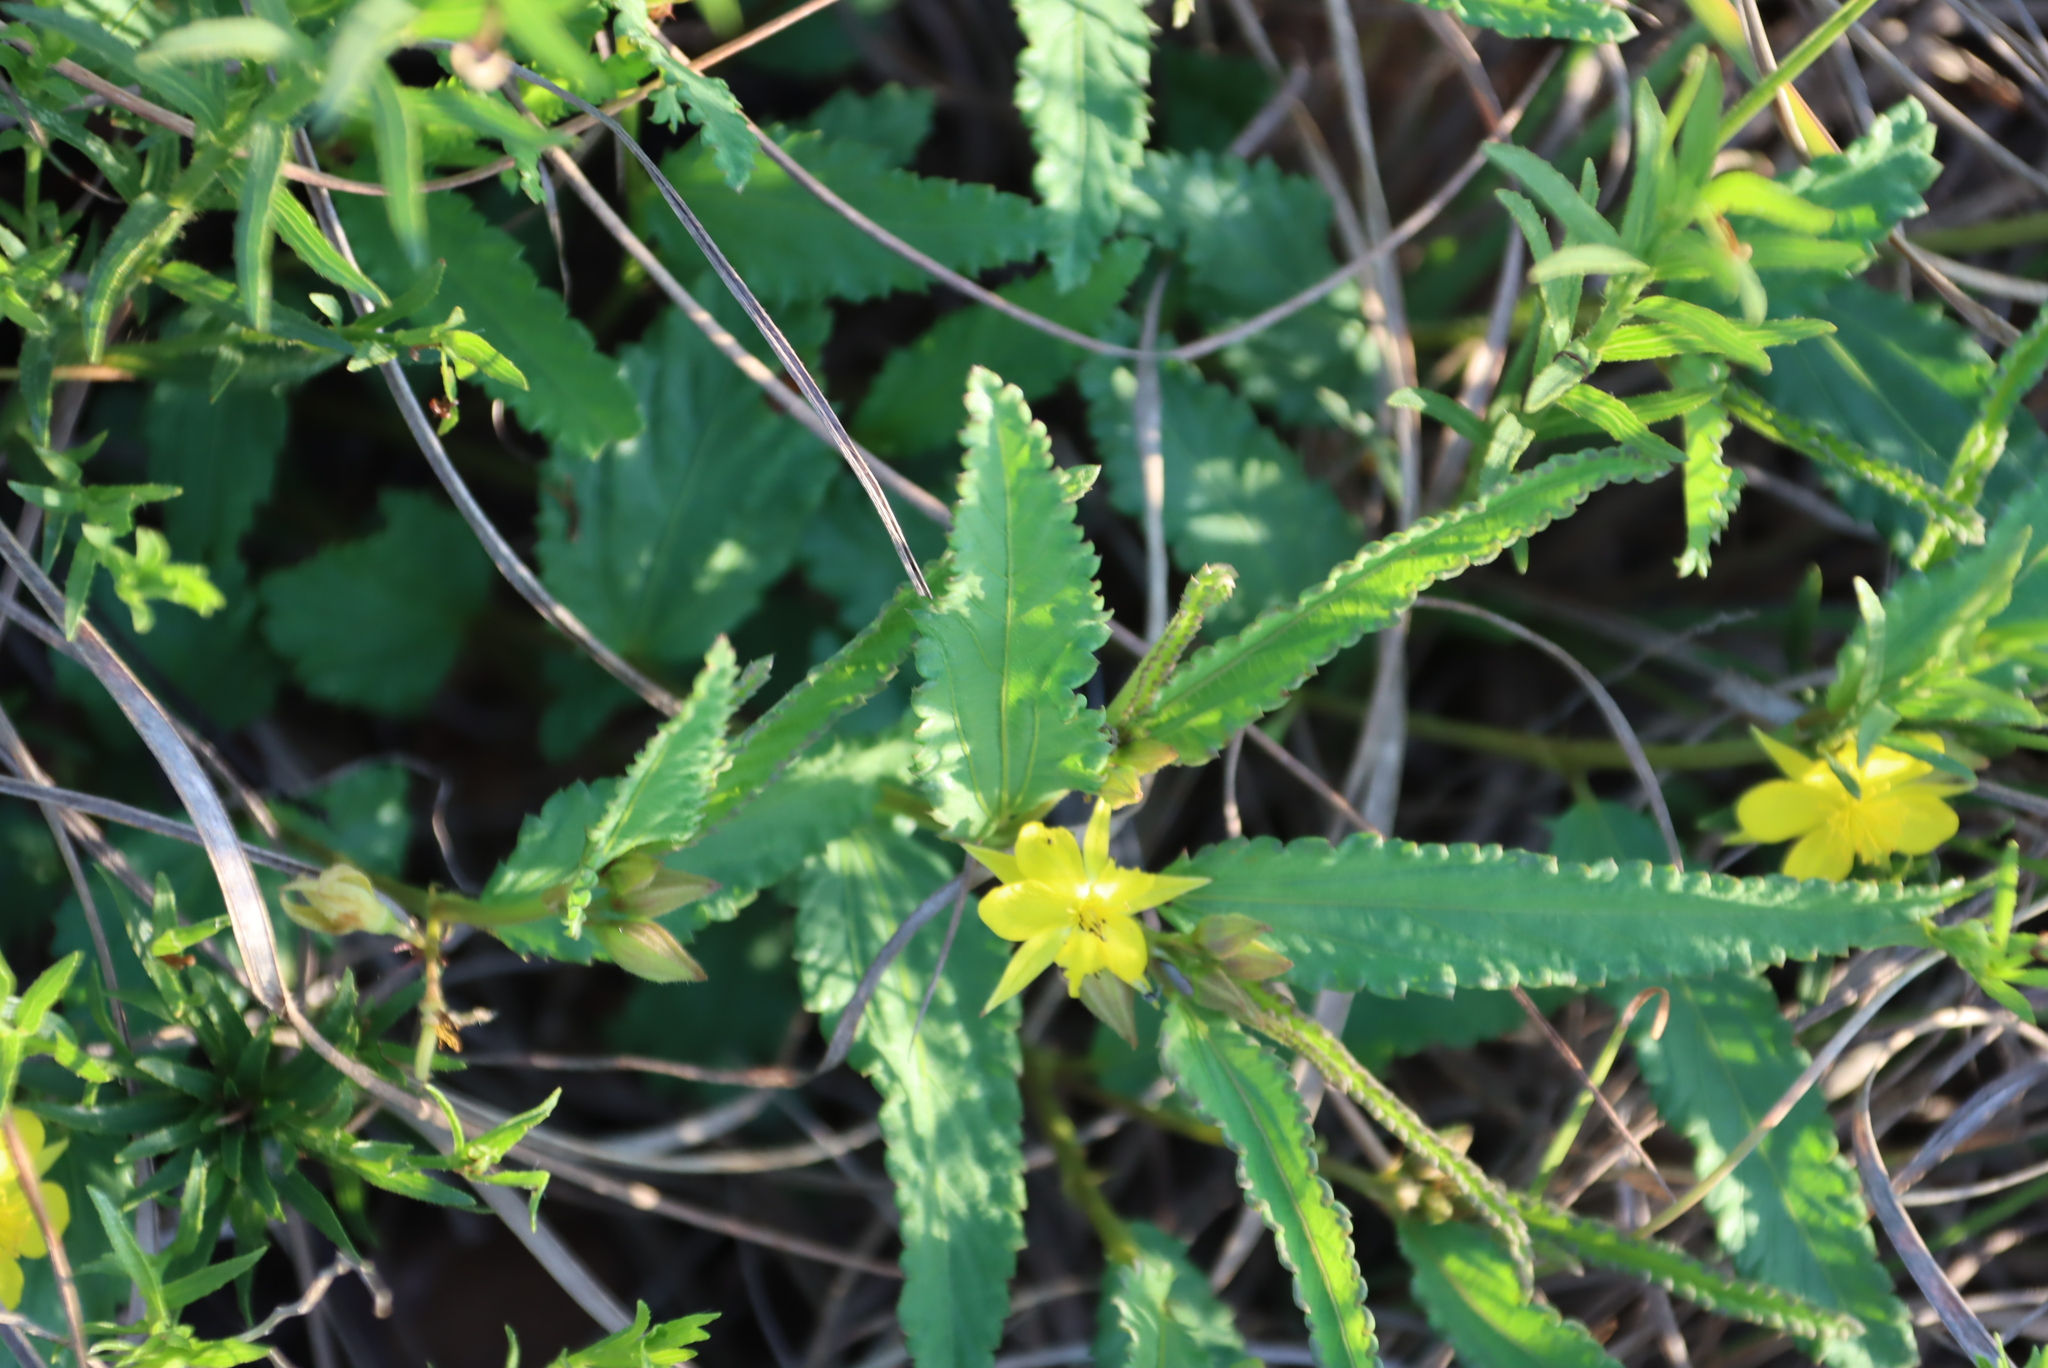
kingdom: Plantae
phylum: Tracheophyta
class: Magnoliopsida
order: Malvales
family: Malvaceae
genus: Corchorus
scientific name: Corchorus confusus
